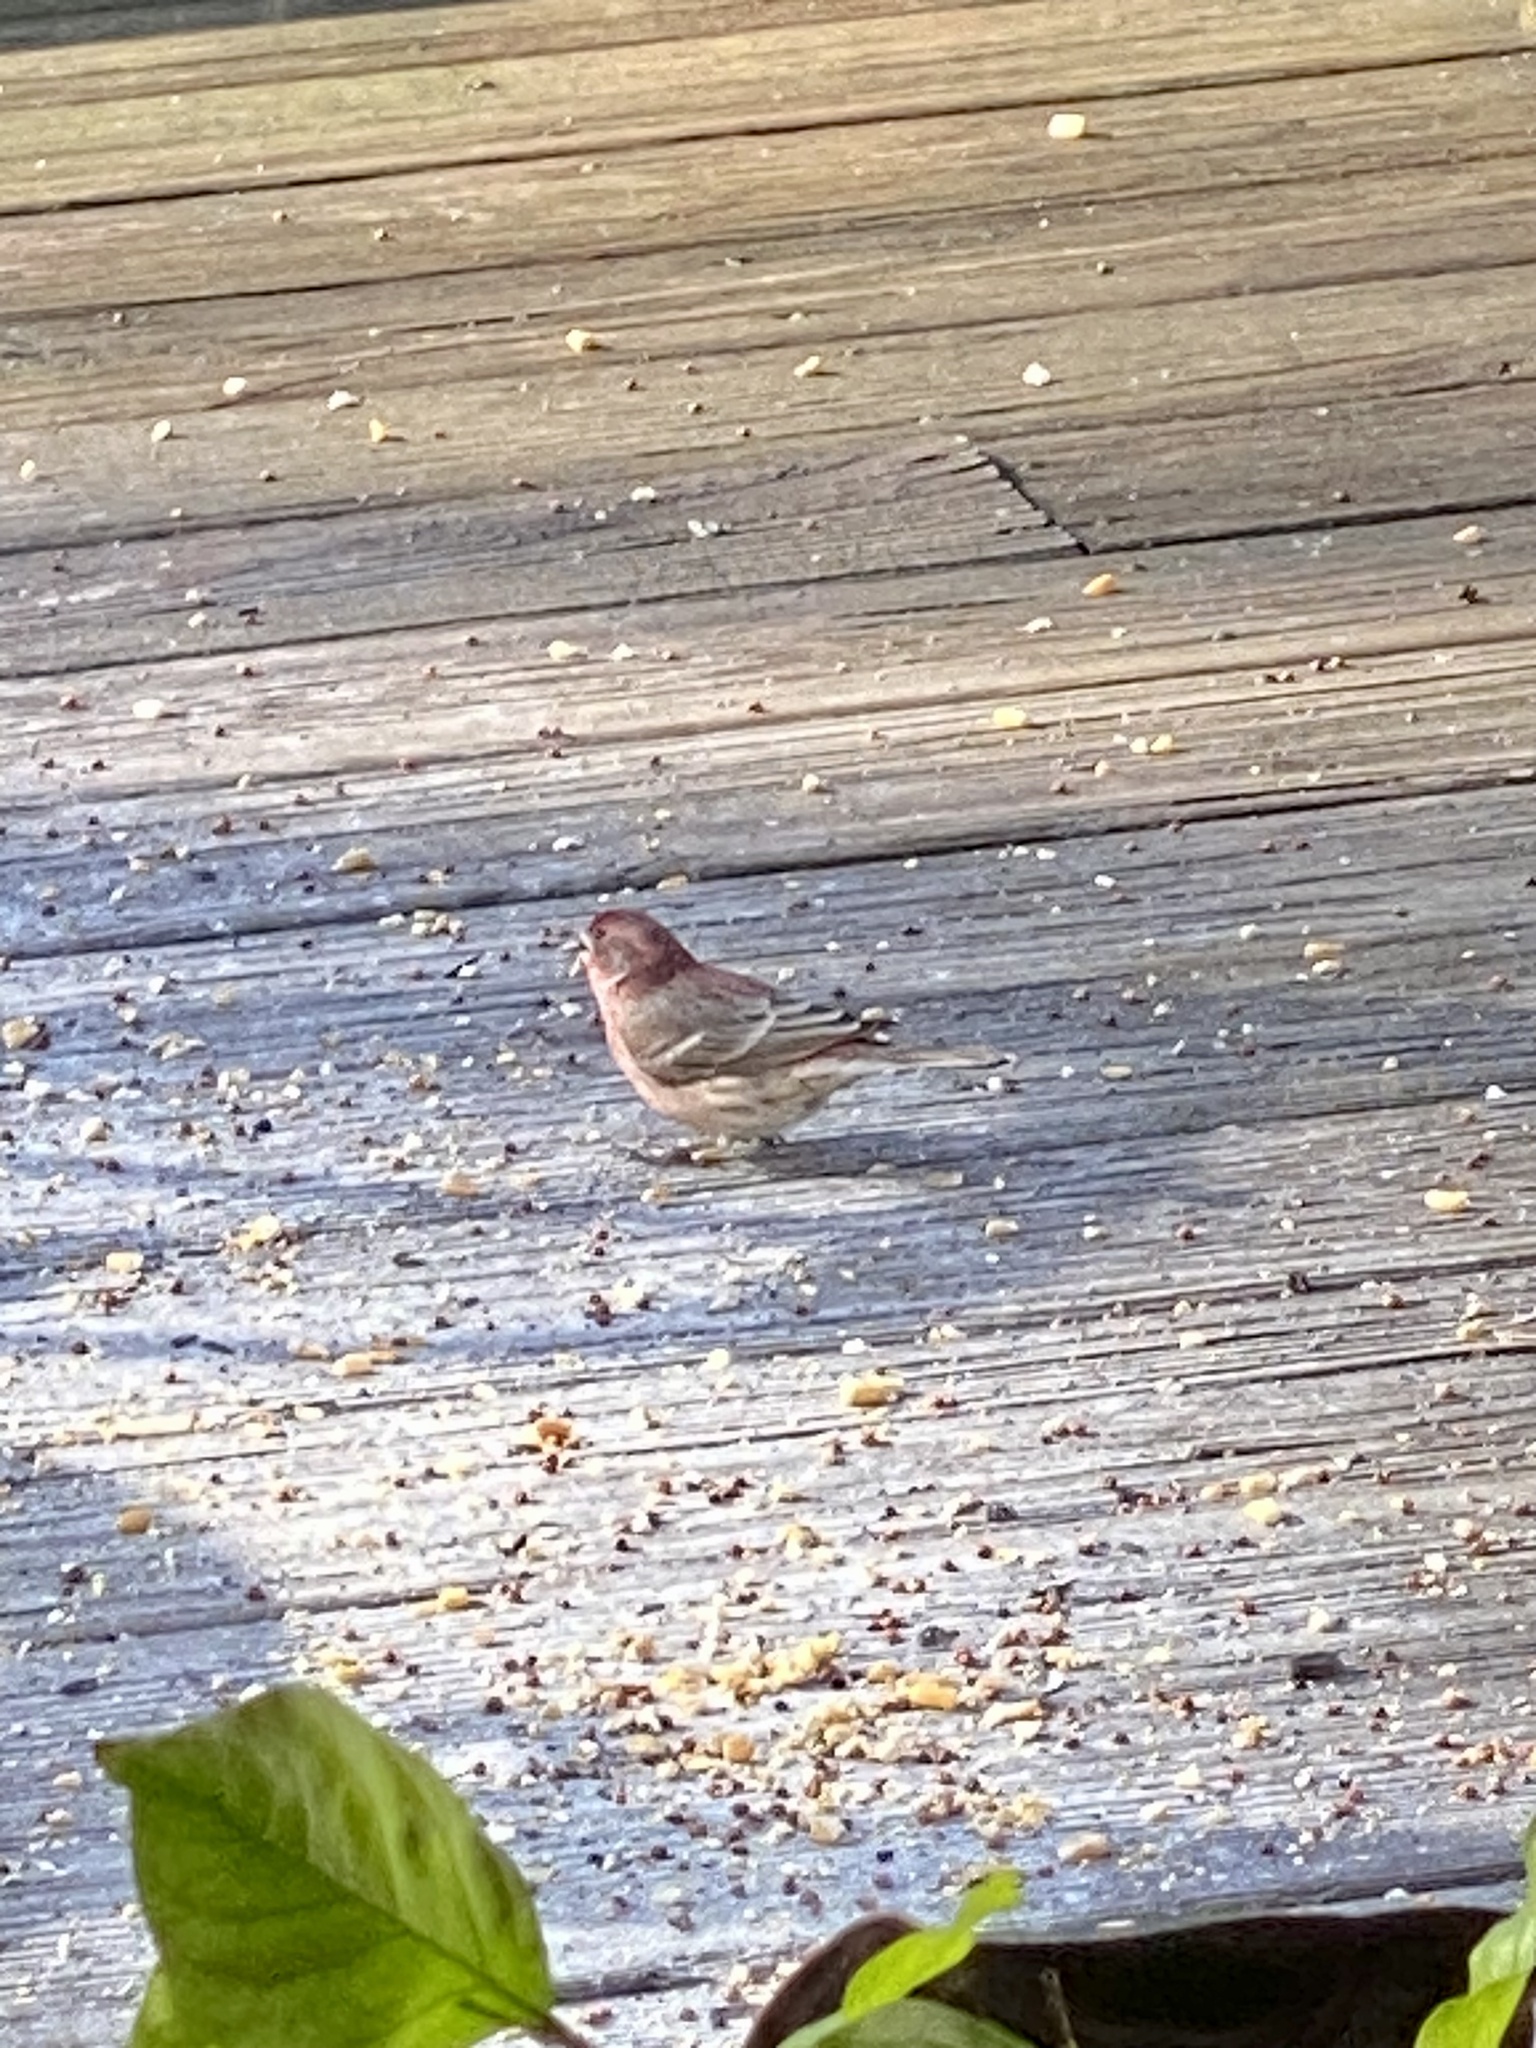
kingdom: Animalia
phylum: Chordata
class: Aves
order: Passeriformes
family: Fringillidae
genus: Haemorhous
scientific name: Haemorhous mexicanus
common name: House finch
